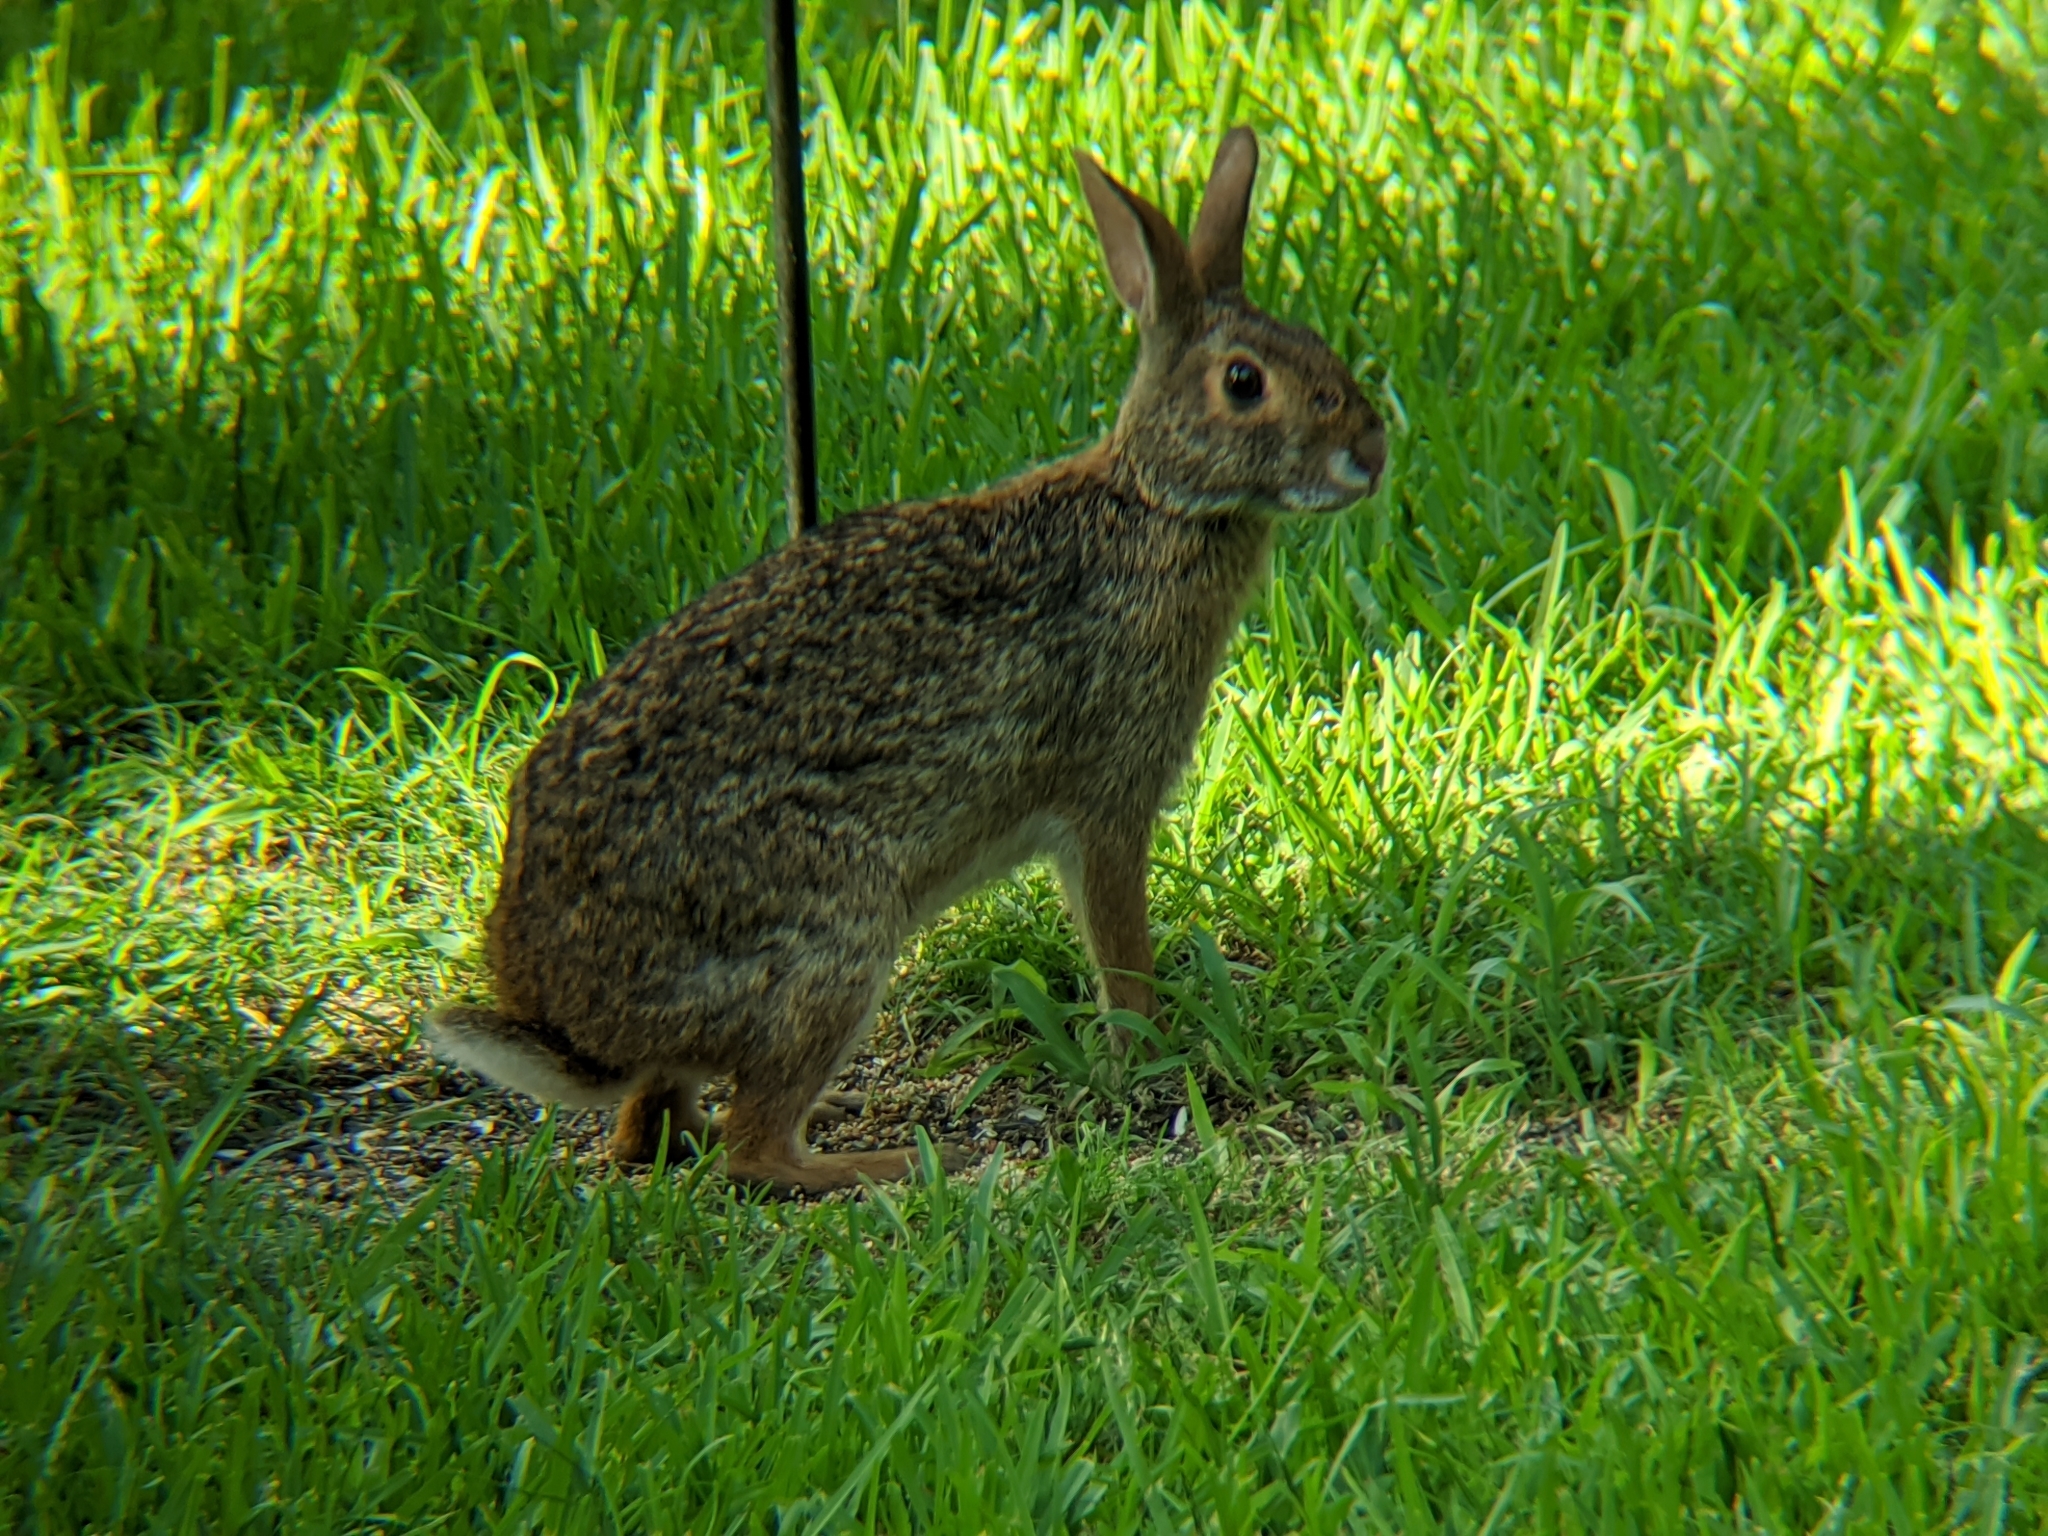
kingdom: Animalia
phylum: Chordata
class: Mammalia
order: Lagomorpha
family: Leporidae
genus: Sylvilagus
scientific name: Sylvilagus aquaticus
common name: Swamp rabbit
